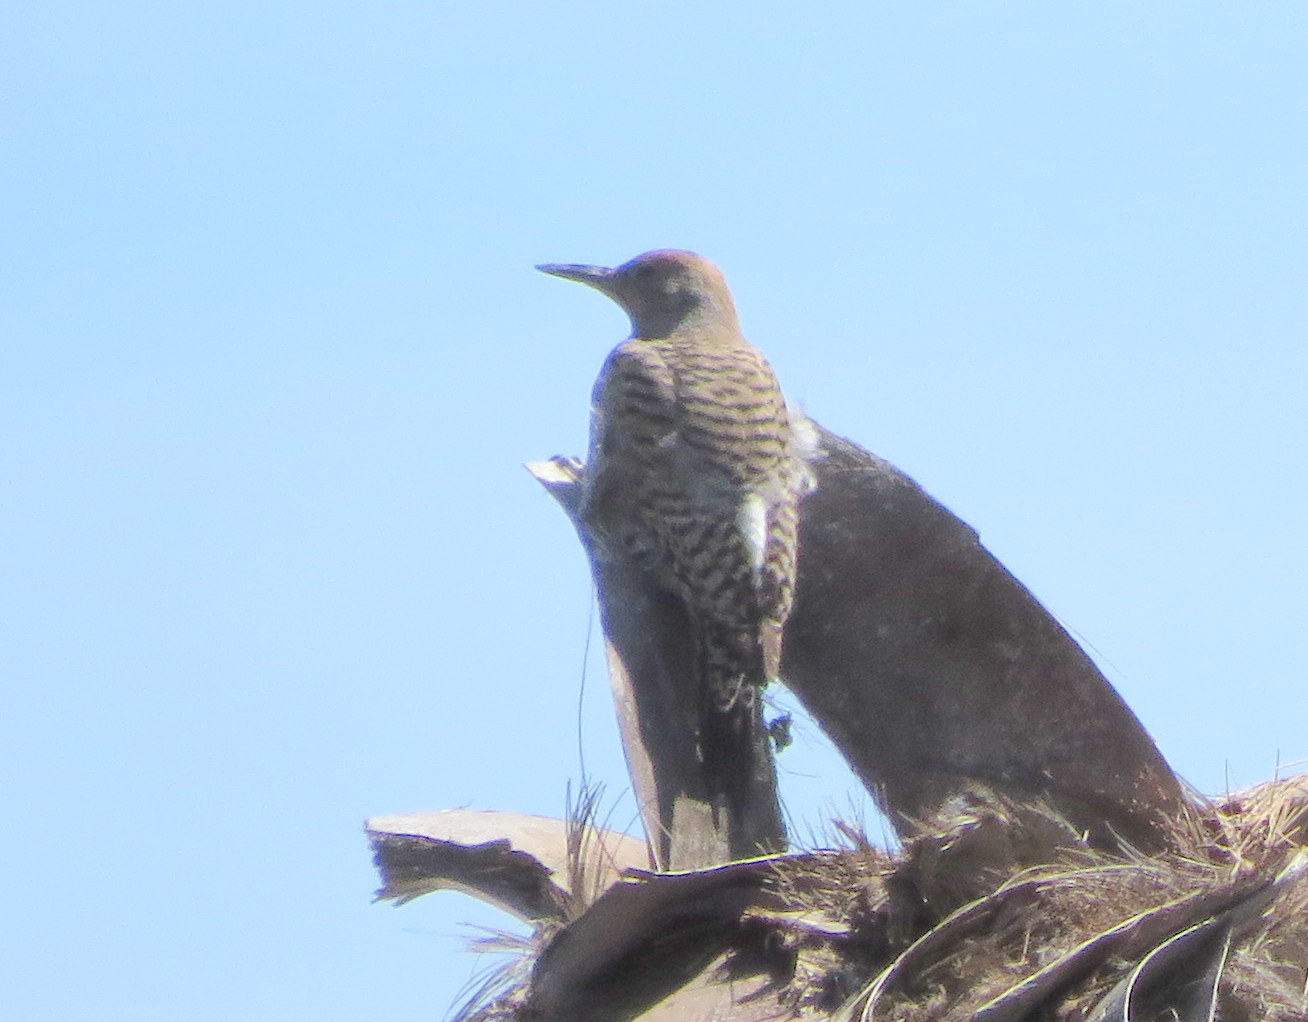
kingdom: Animalia
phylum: Chordata
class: Aves
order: Piciformes
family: Picidae
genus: Colaptes
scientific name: Colaptes chrysoides
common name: Gilded flicker
